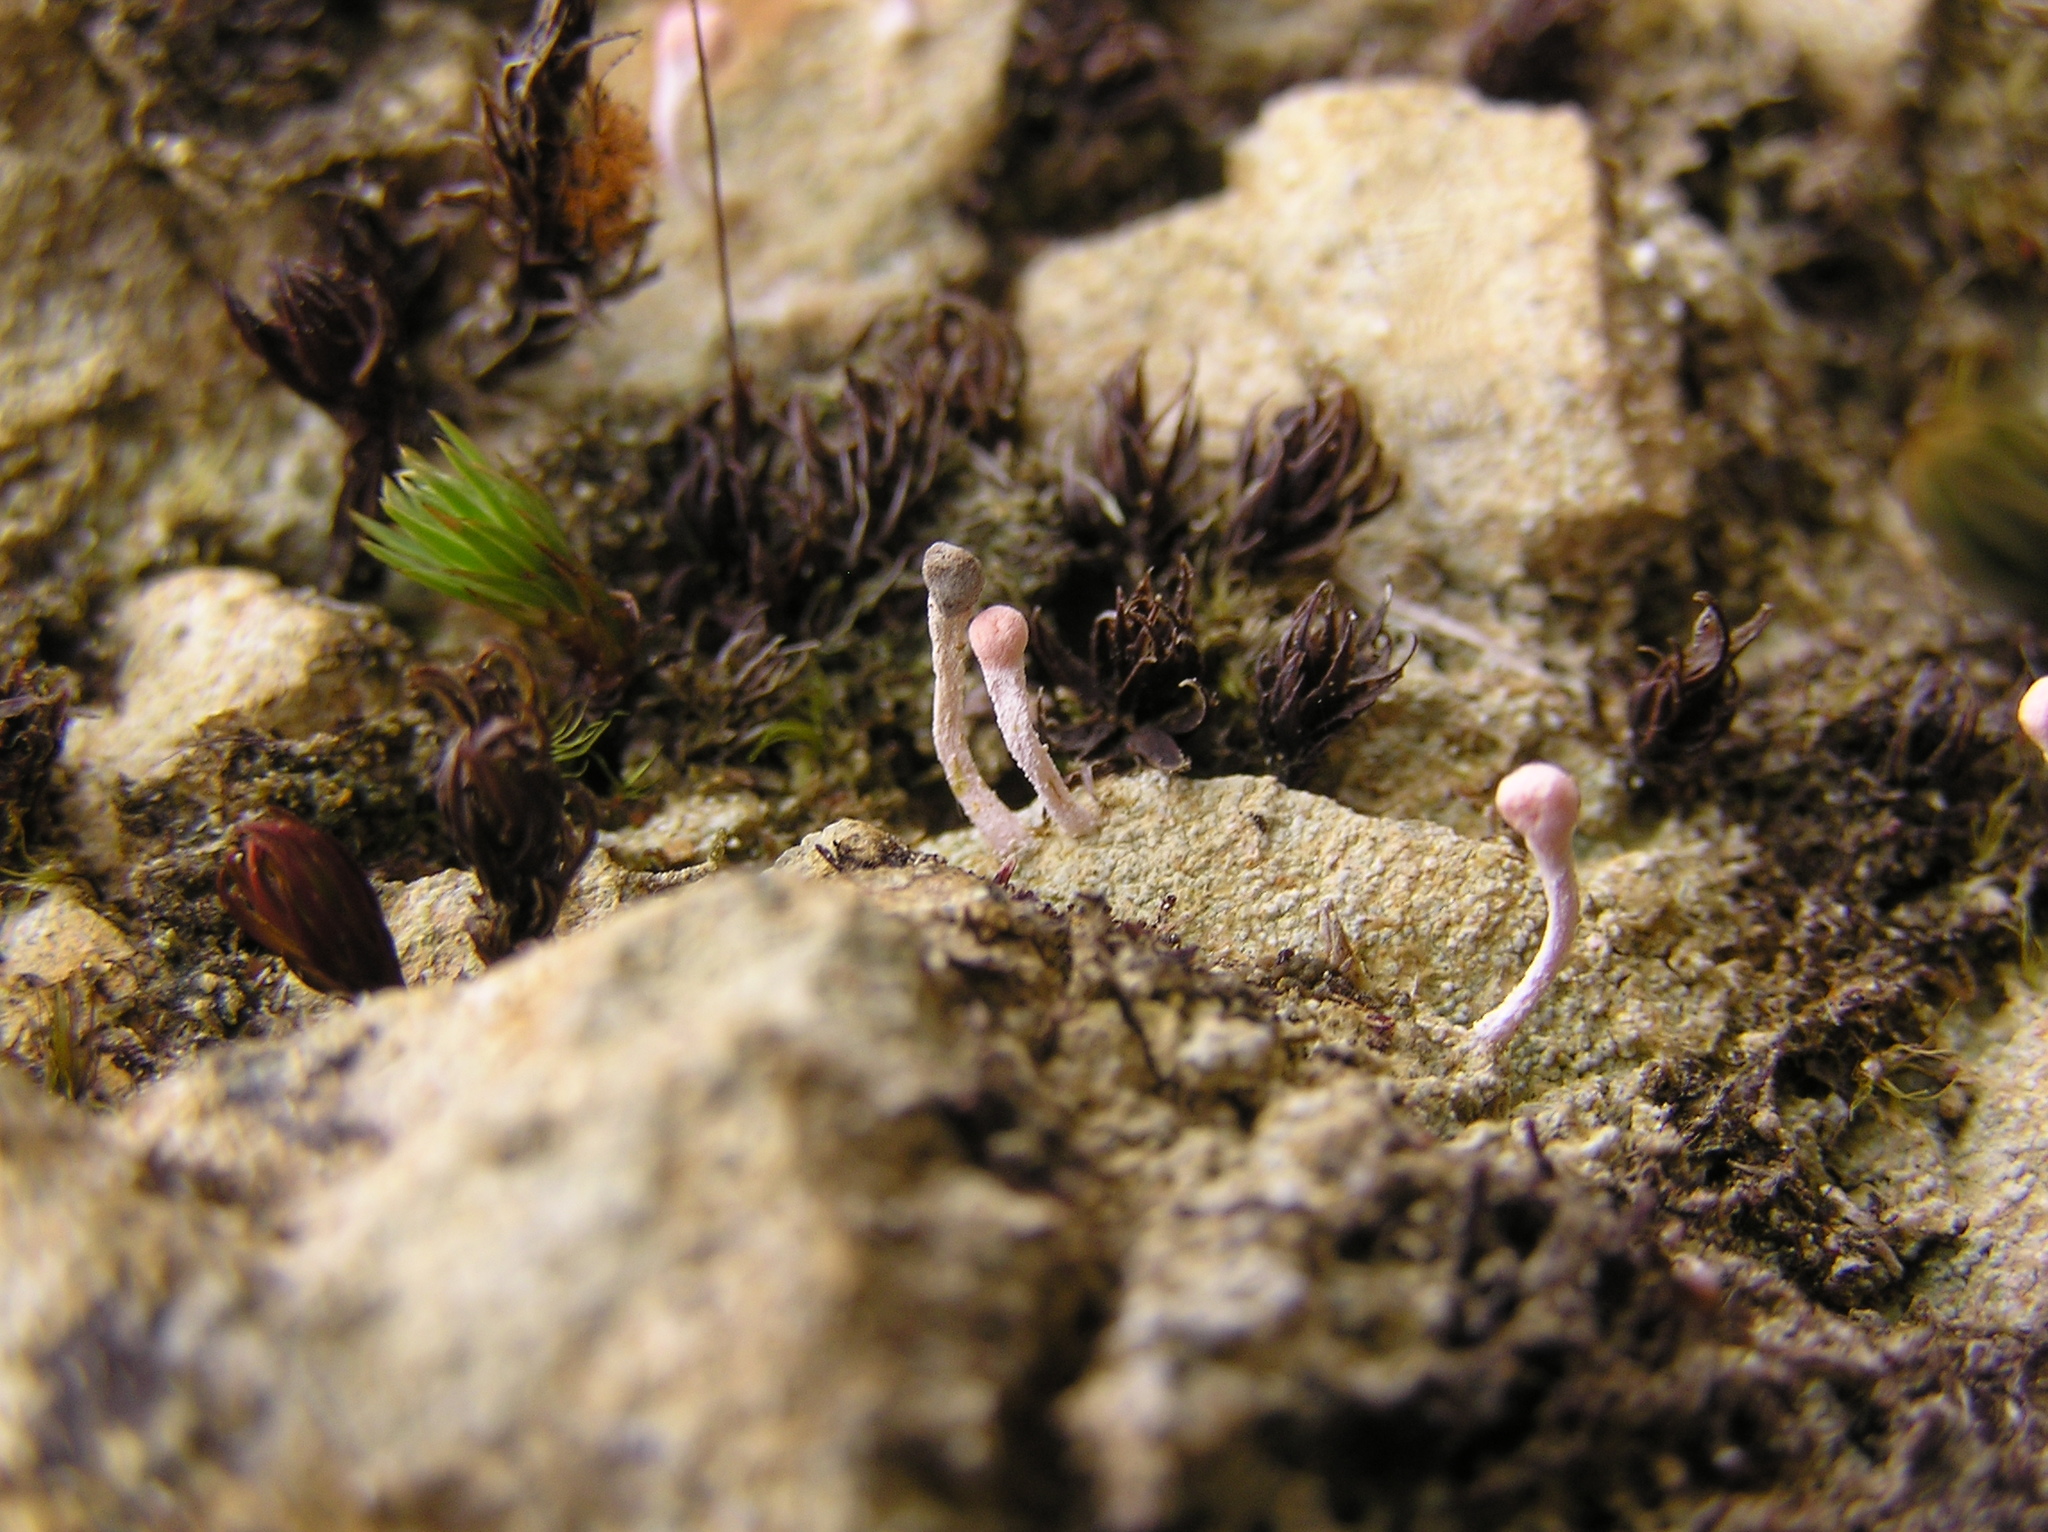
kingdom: Fungi
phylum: Ascomycota
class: Lecanoromycetes
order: Pertusariales
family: Icmadophilaceae
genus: Dibaeis
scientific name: Dibaeis arcuata
